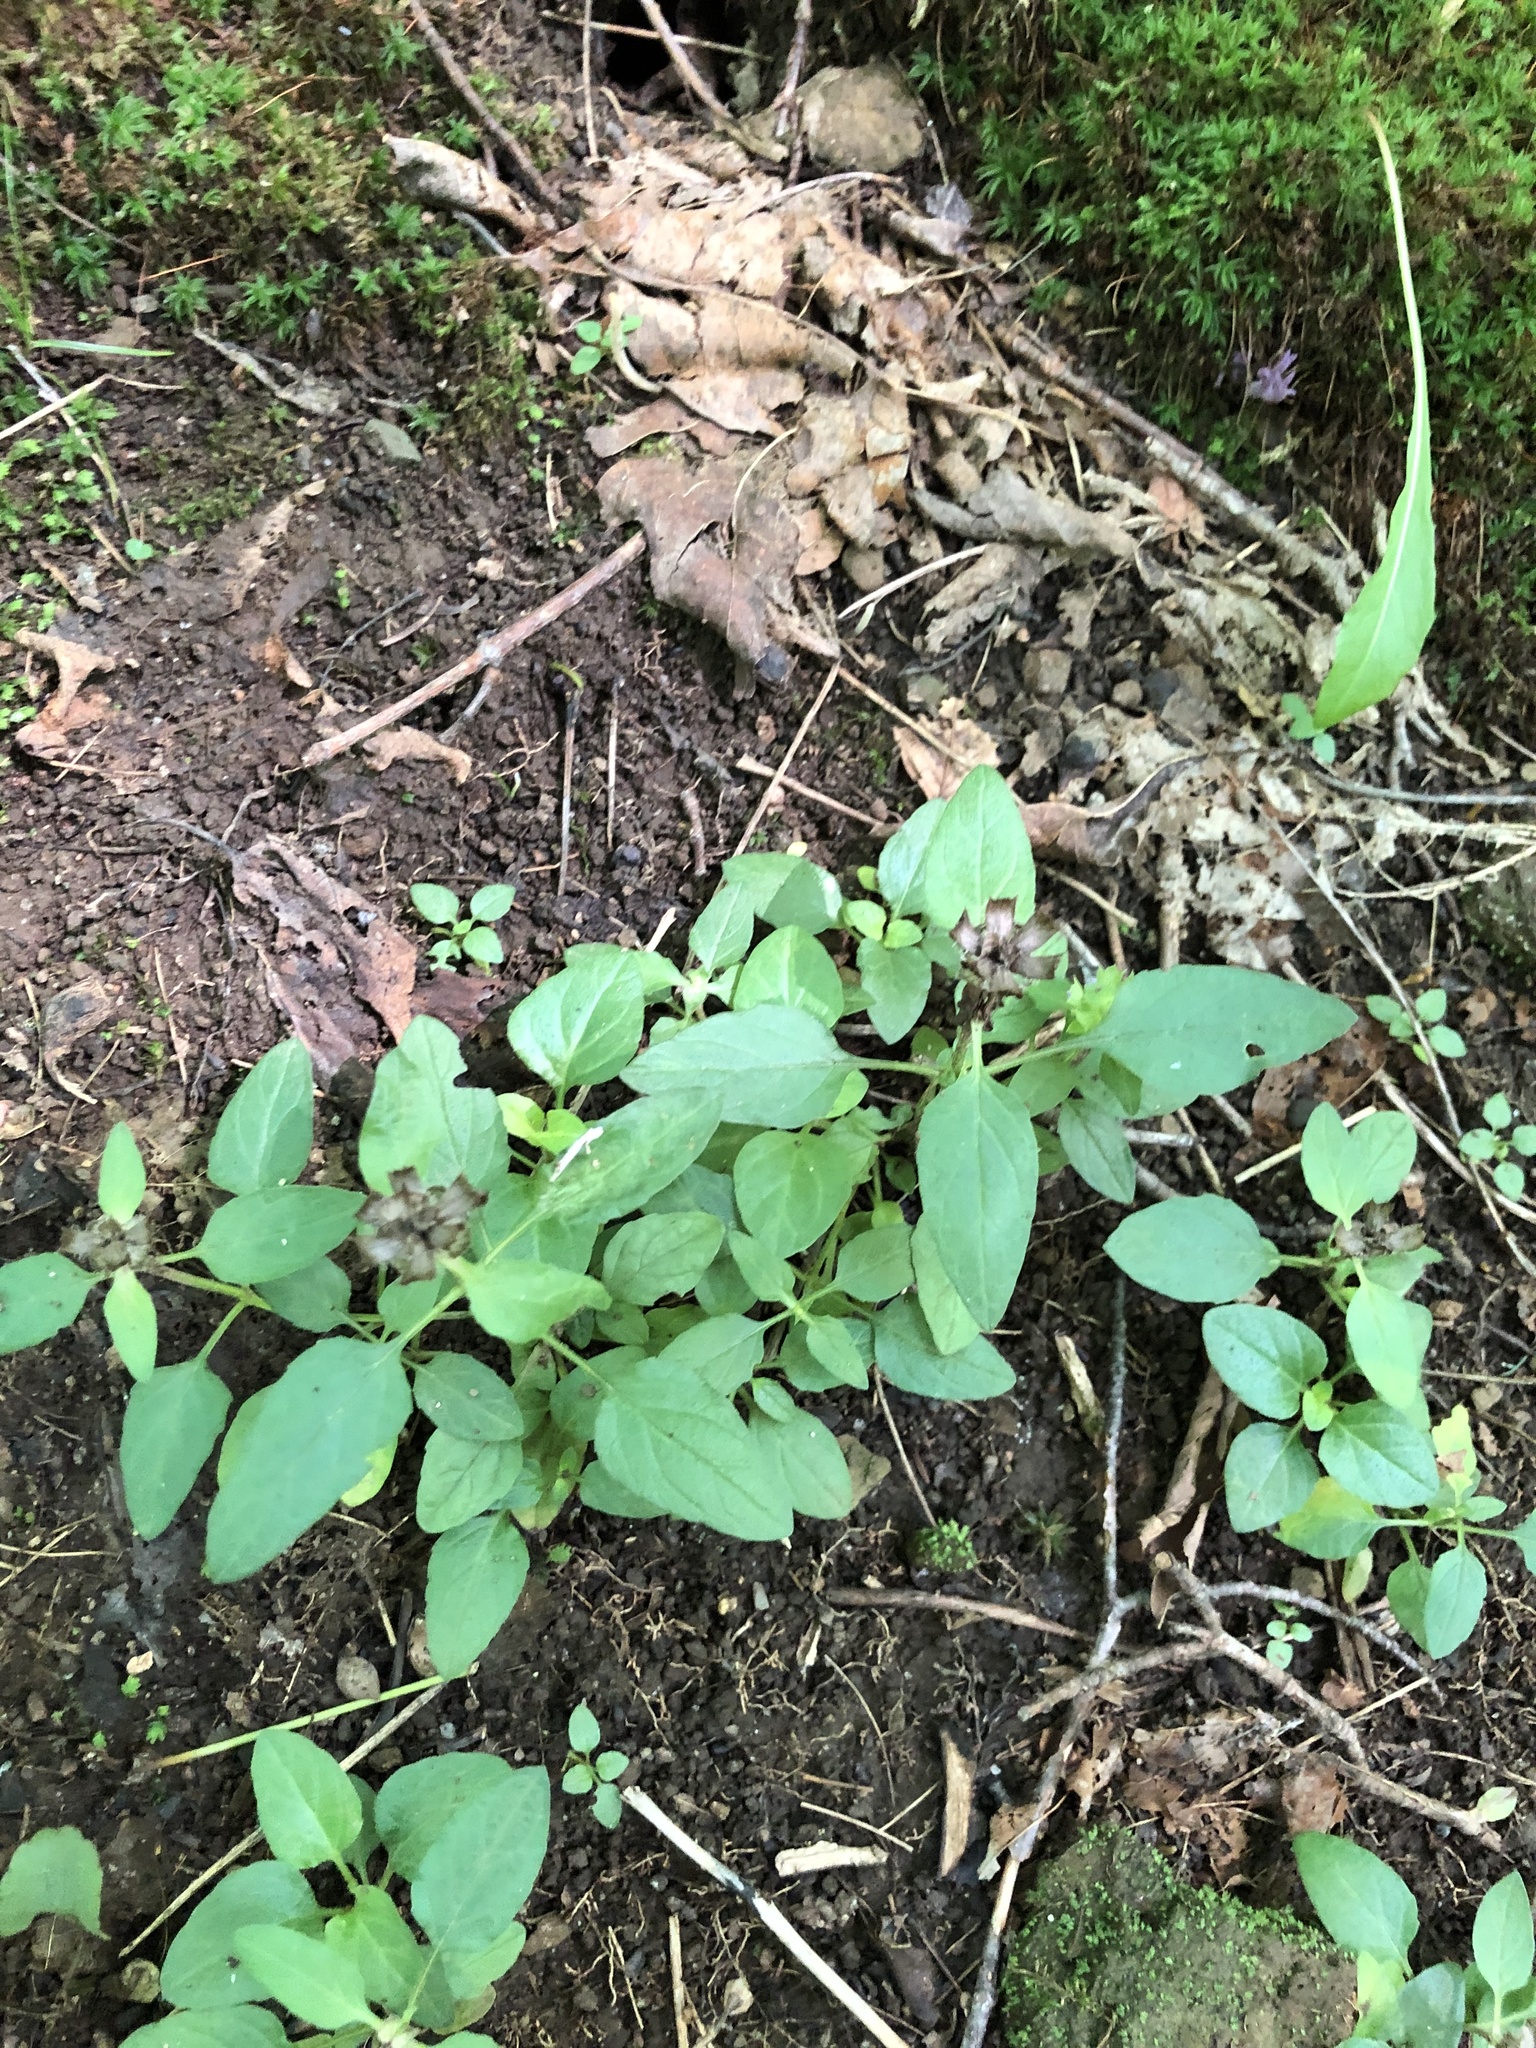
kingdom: Plantae
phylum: Tracheophyta
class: Magnoliopsida
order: Lamiales
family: Lamiaceae
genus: Prunella
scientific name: Prunella vulgaris
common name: Heal-all
